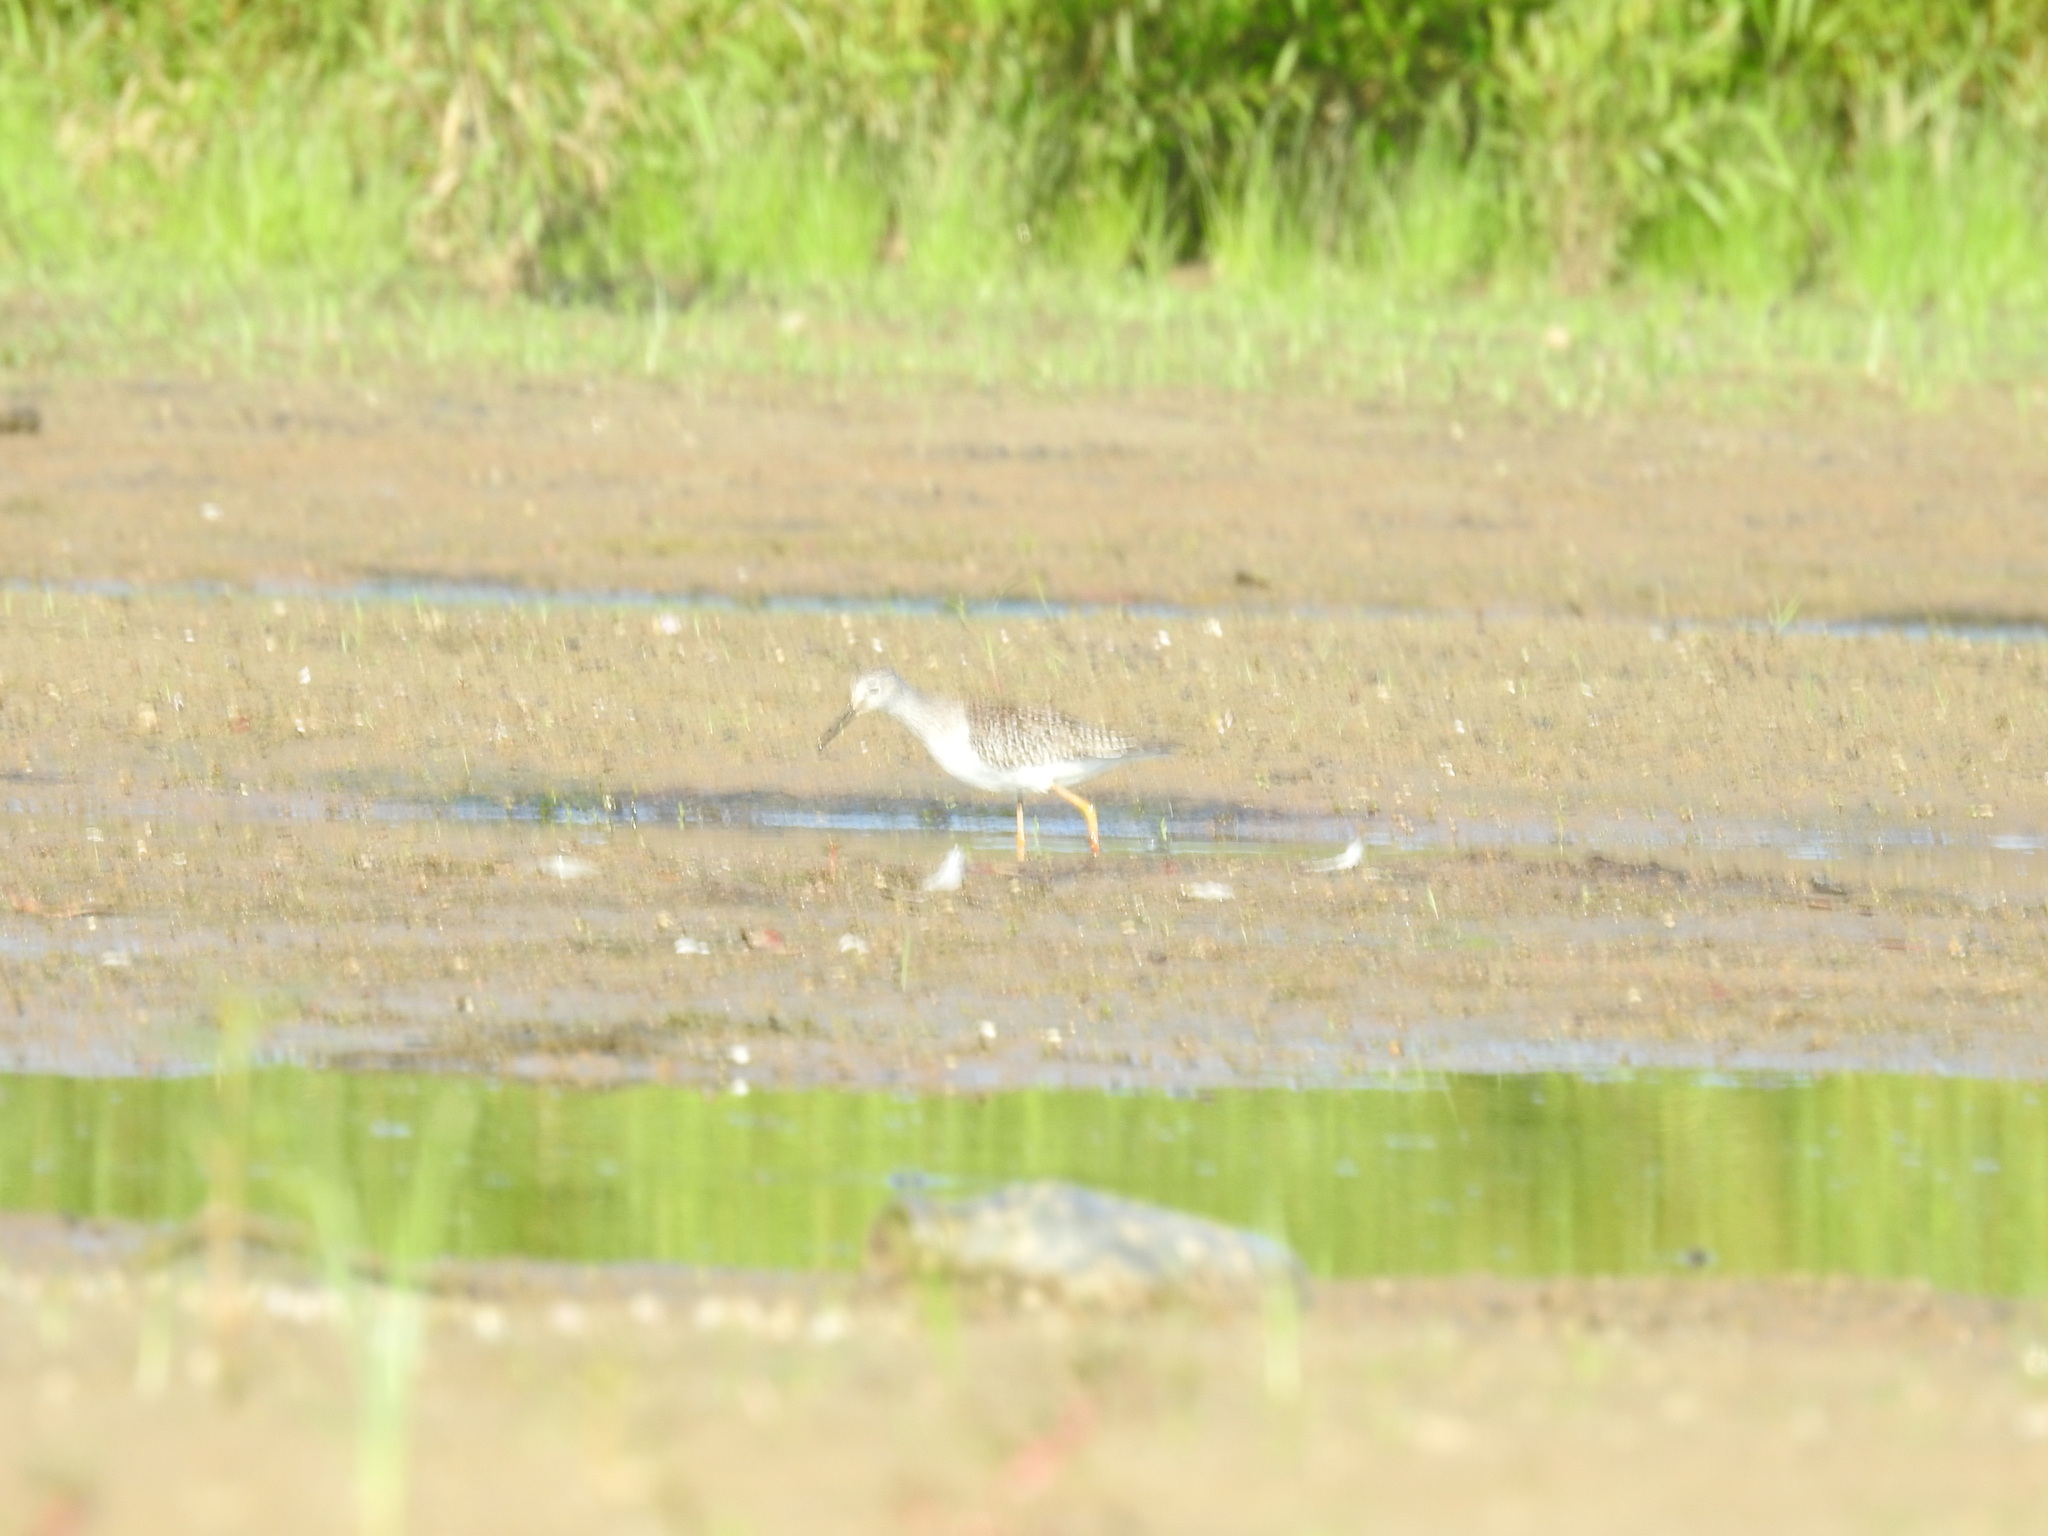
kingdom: Animalia
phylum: Chordata
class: Aves
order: Charadriiformes
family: Scolopacidae
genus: Tringa
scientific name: Tringa flavipes
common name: Lesser yellowlegs
